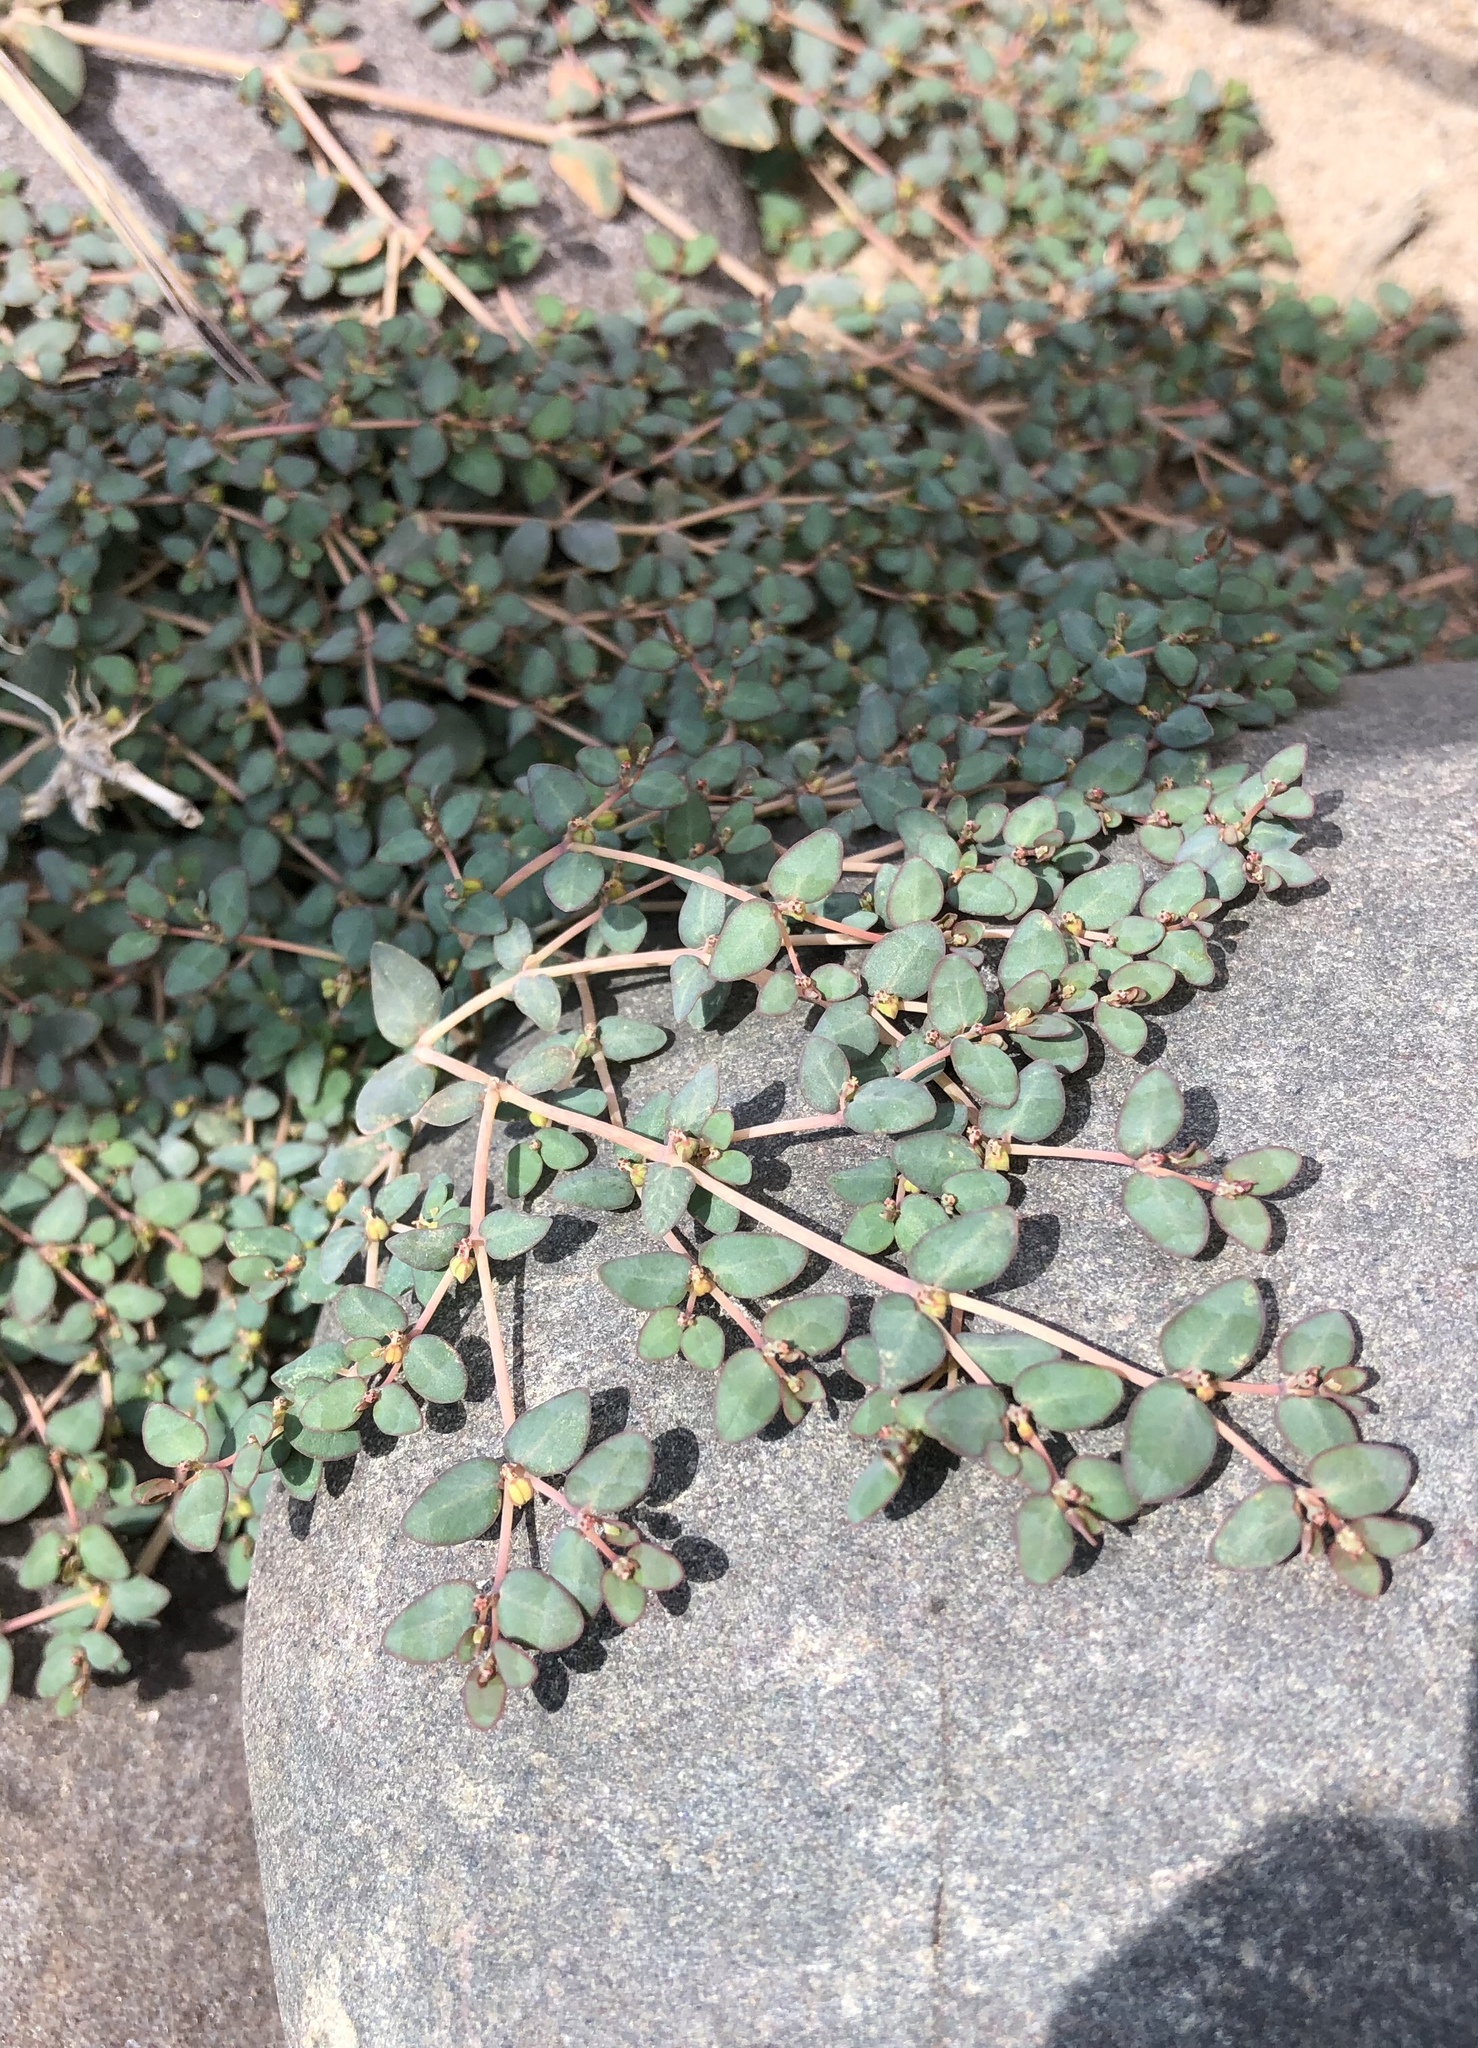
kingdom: Plantae
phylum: Tracheophyta
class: Magnoliopsida
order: Malpighiales
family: Euphorbiaceae
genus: Euphorbia
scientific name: Euphorbia micromera
